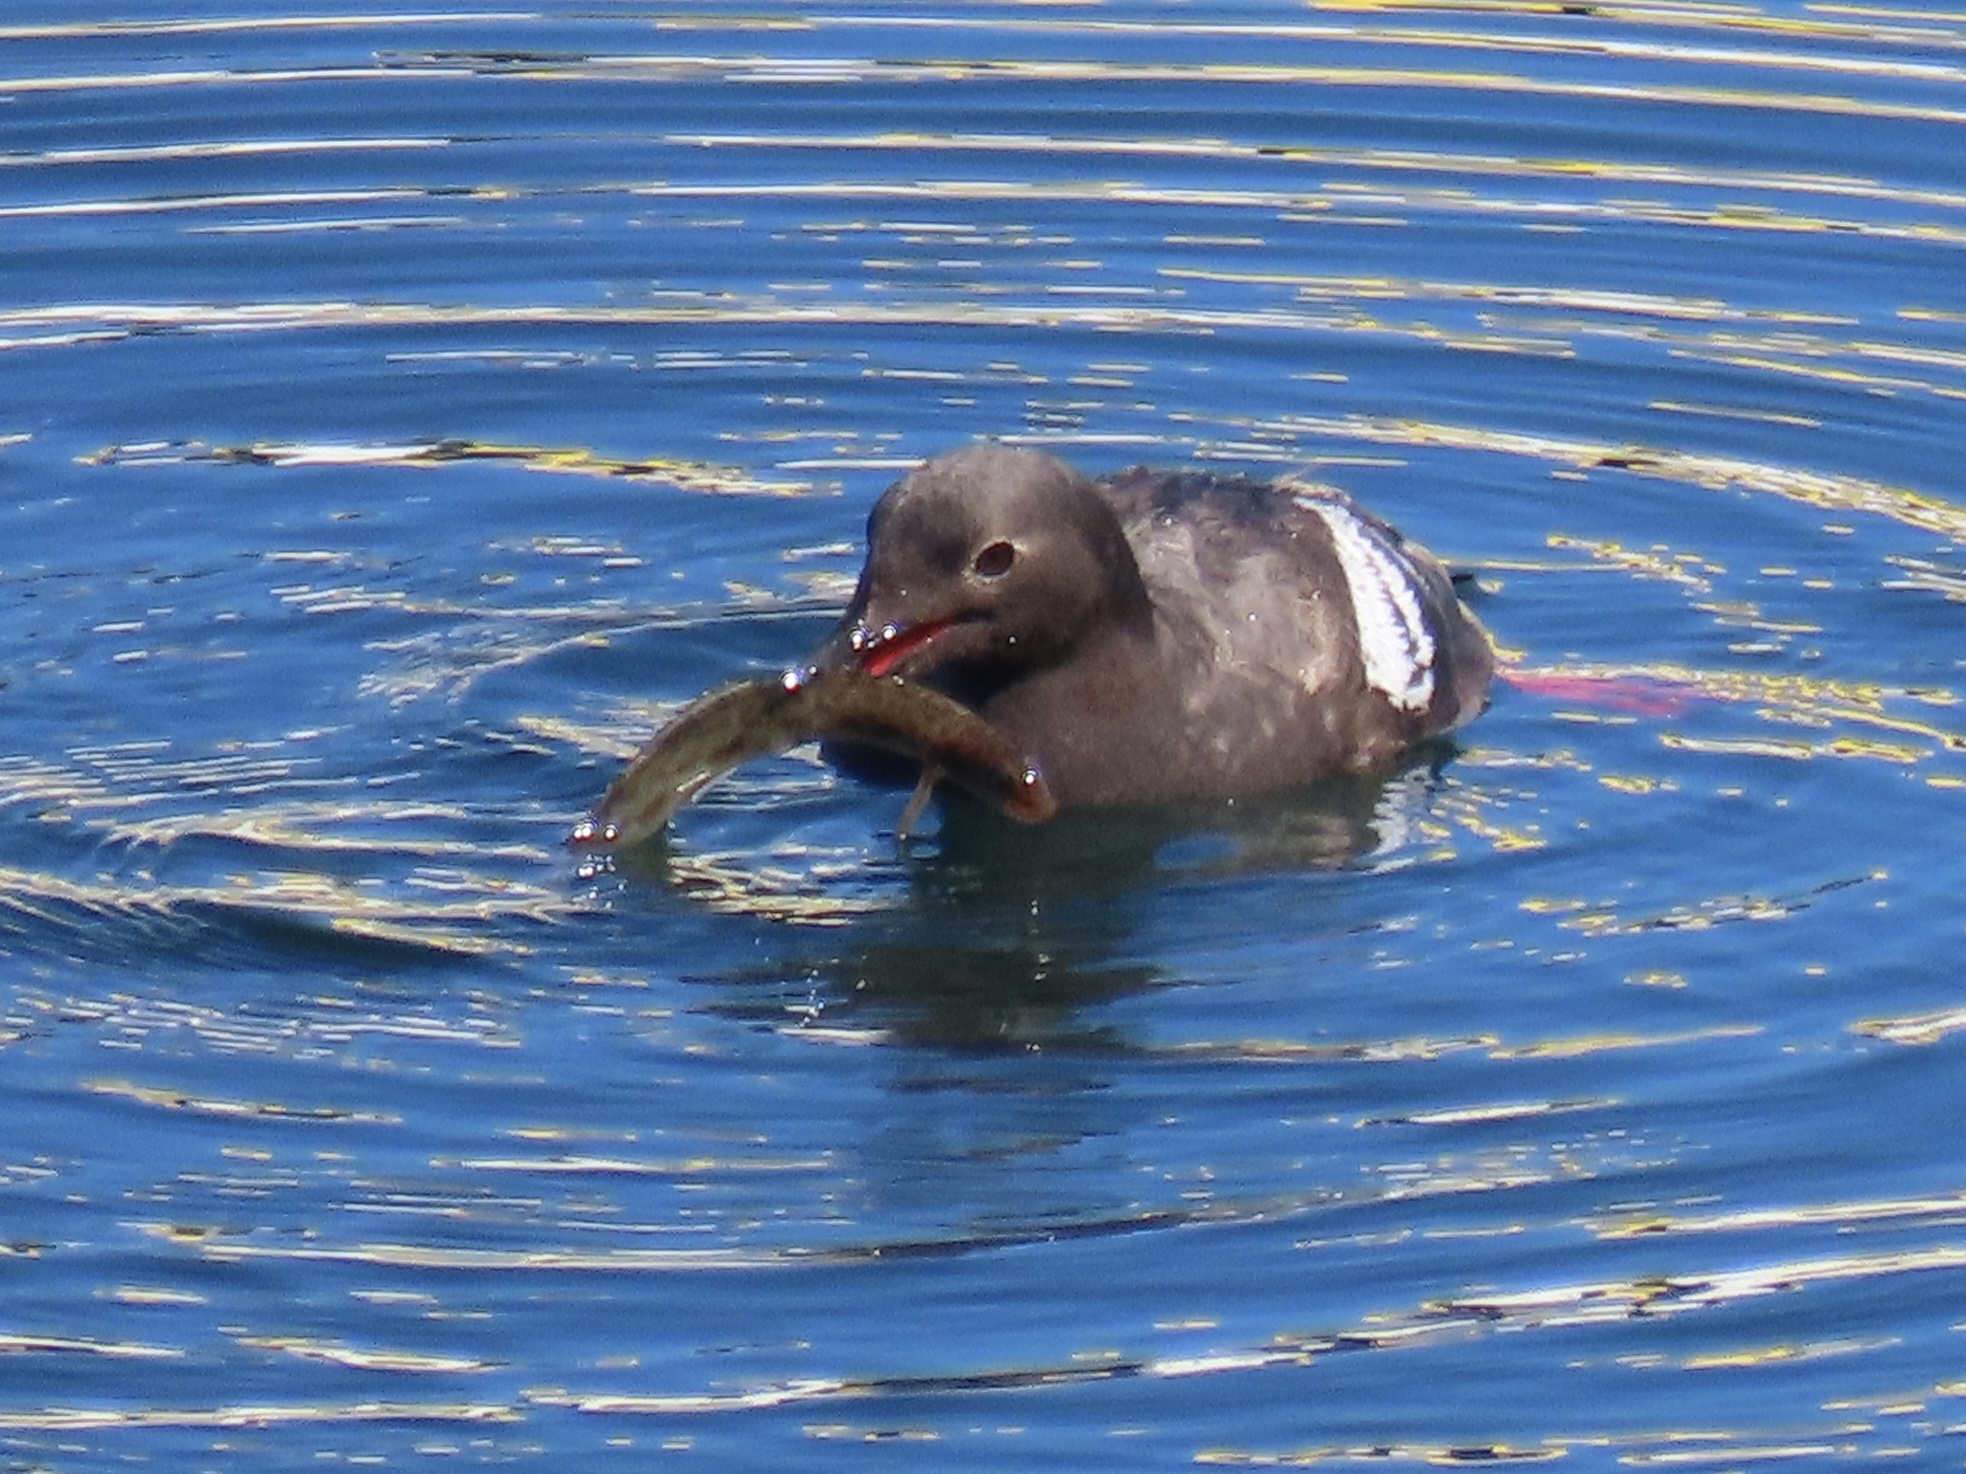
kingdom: Animalia
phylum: Chordata
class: Aves
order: Charadriiformes
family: Alcidae
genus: Cepphus
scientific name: Cepphus columba
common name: Pigeon guillemot
